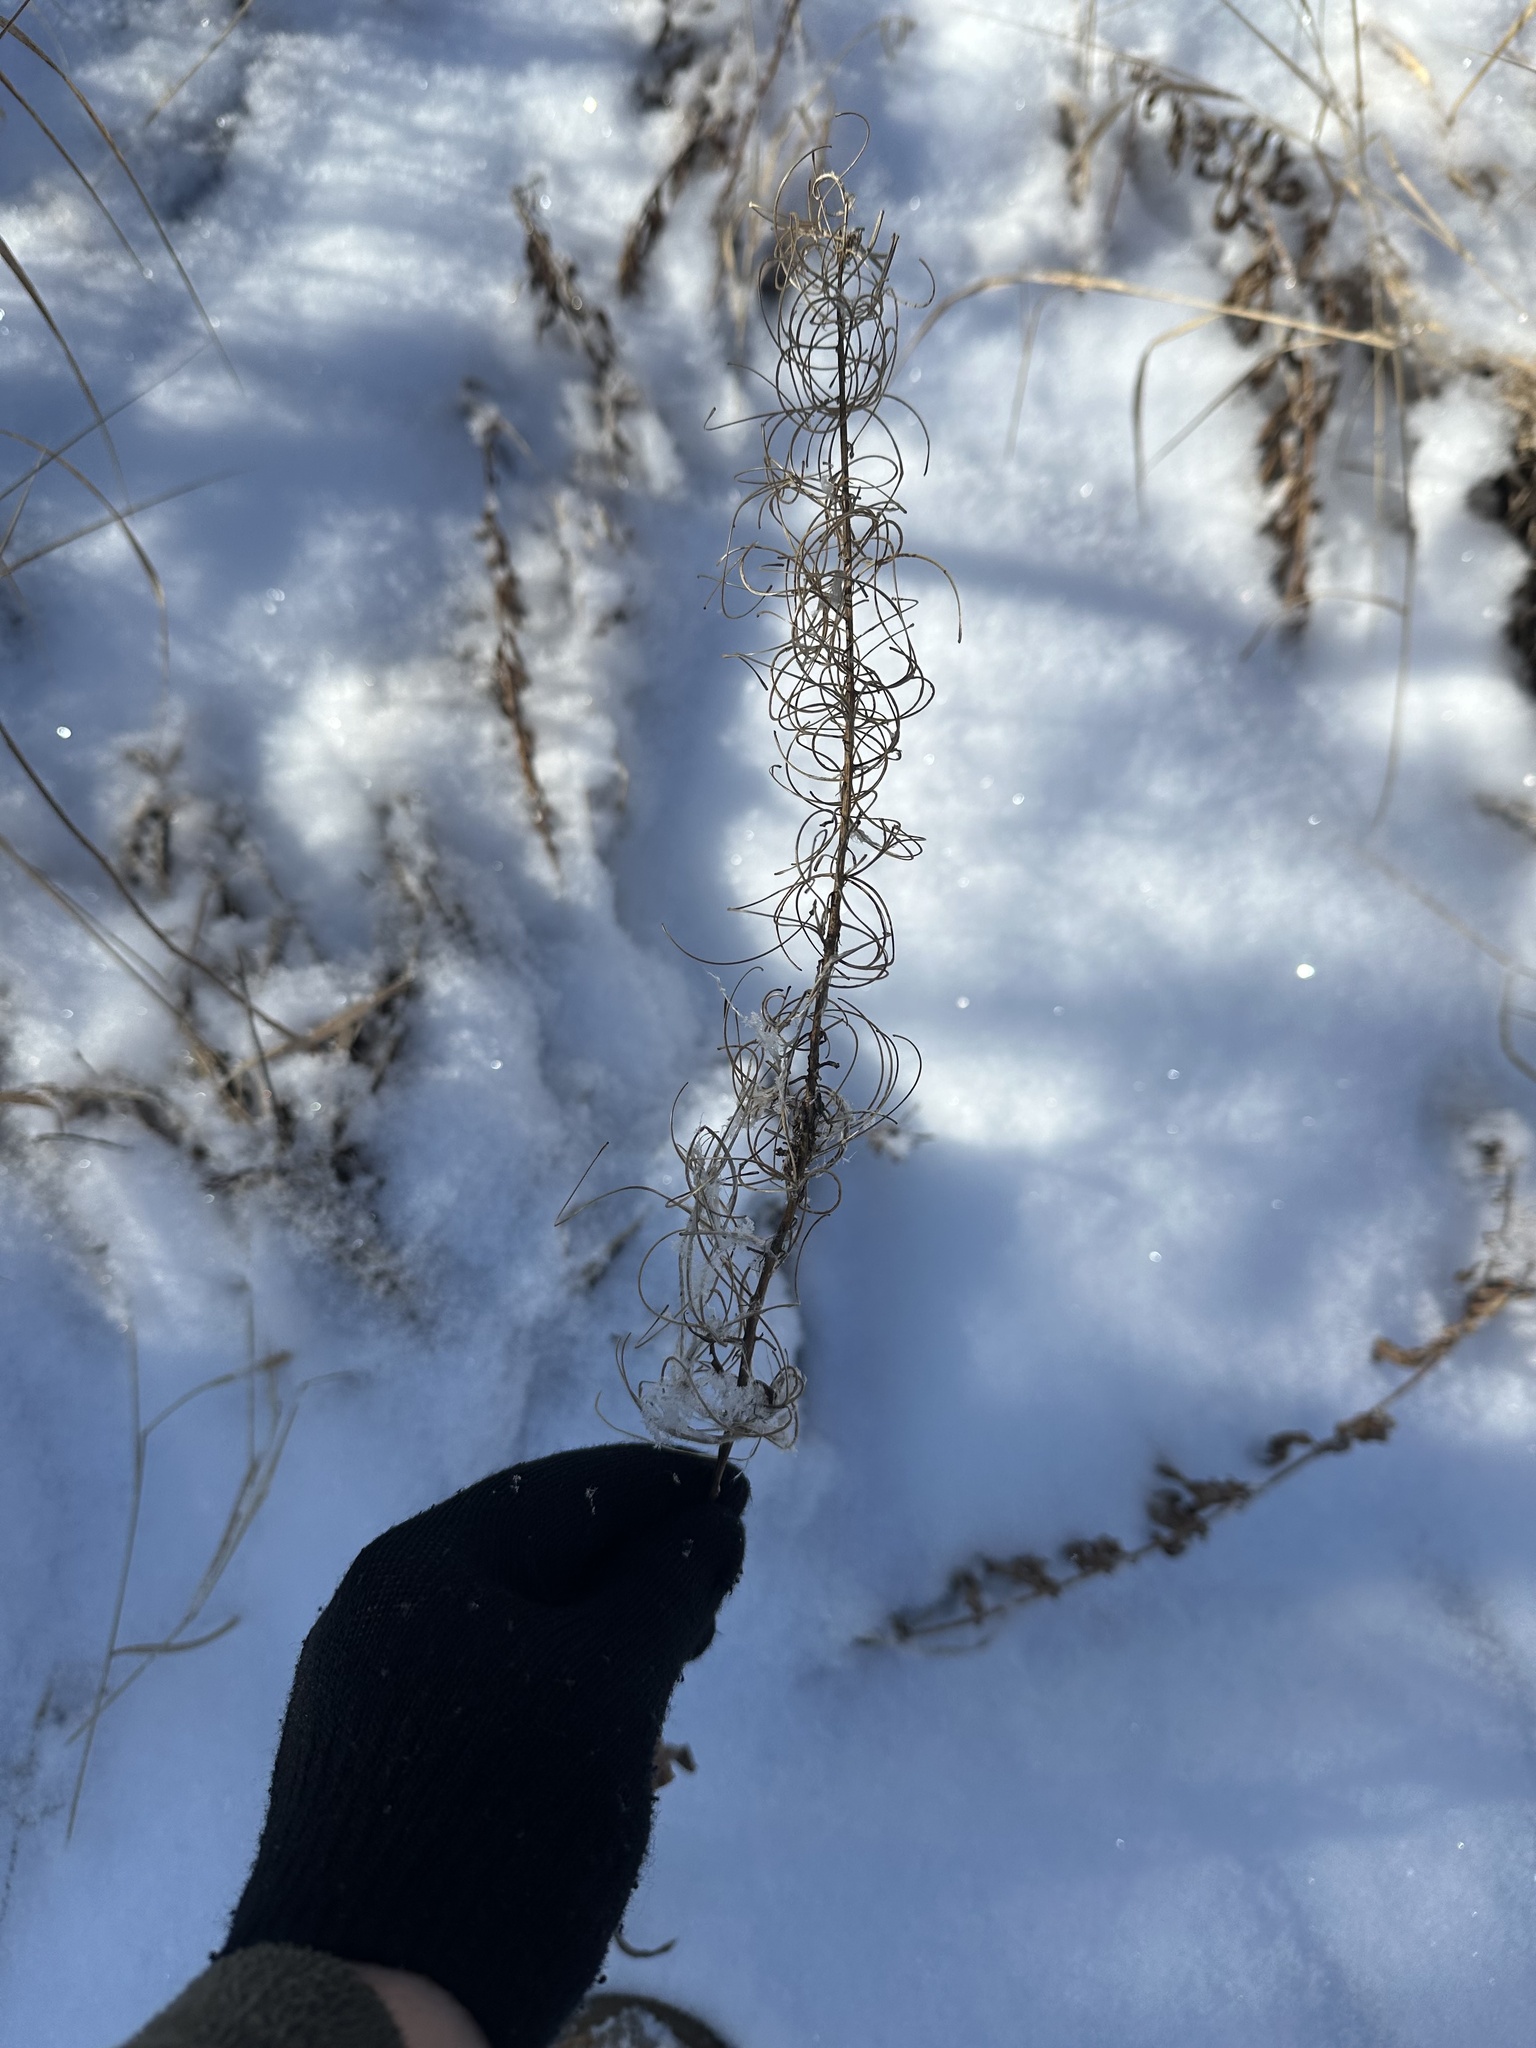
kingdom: Plantae
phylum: Tracheophyta
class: Magnoliopsida
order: Myrtales
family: Onagraceae
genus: Chamaenerion
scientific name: Chamaenerion angustifolium
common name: Fireweed
